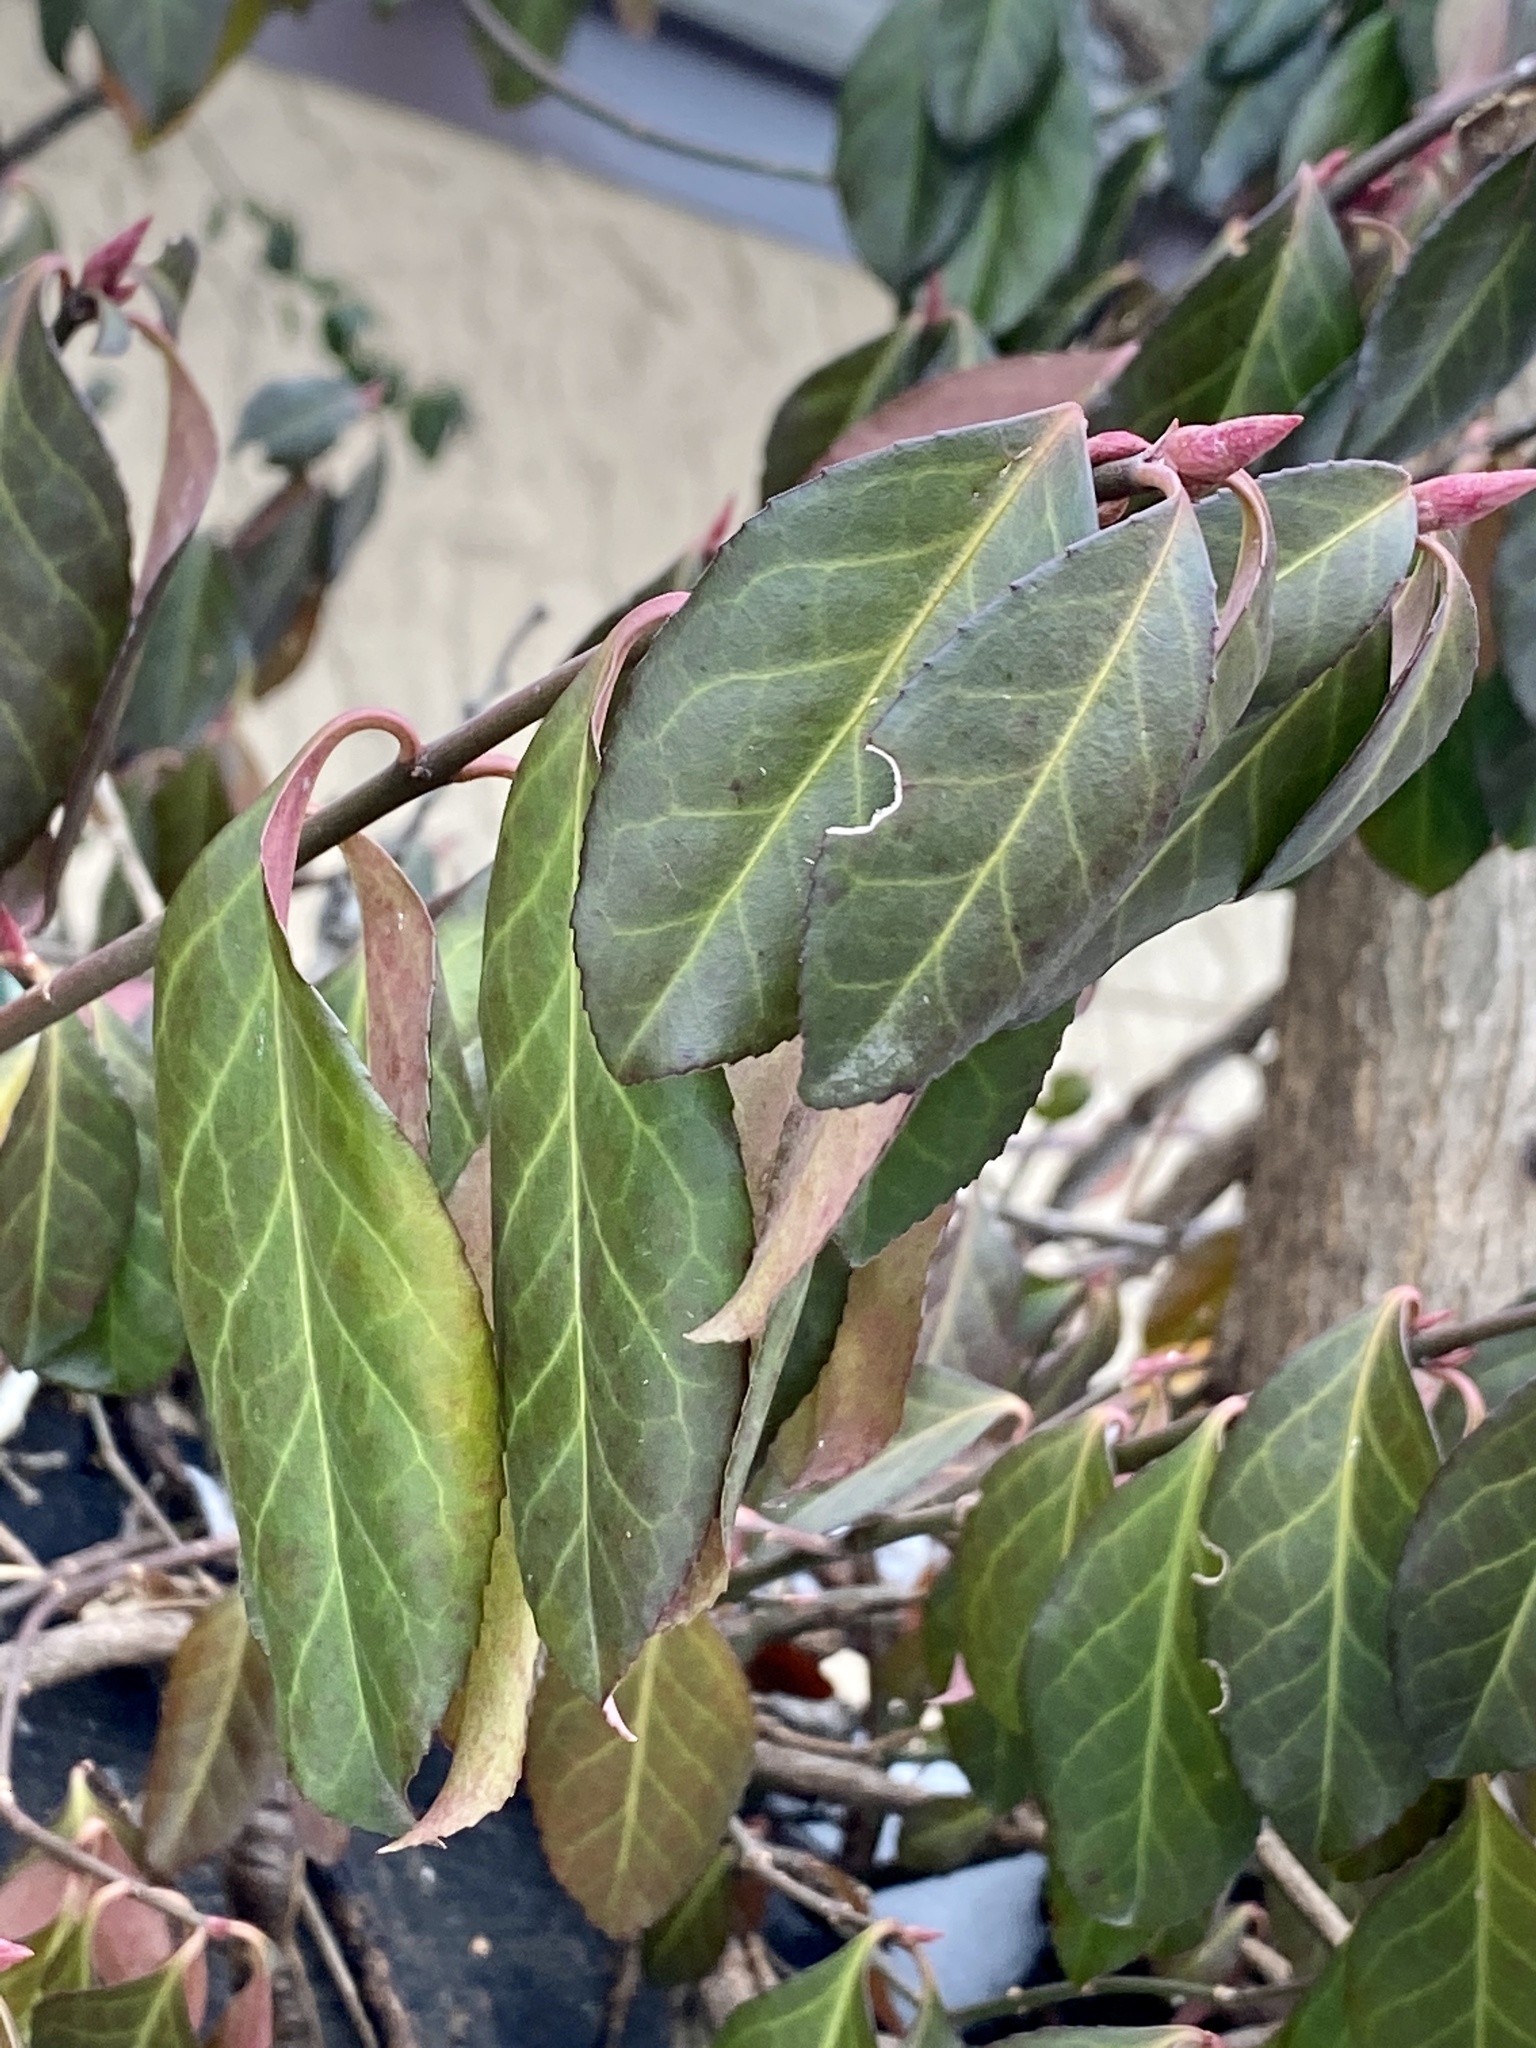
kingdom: Plantae
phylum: Tracheophyta
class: Magnoliopsida
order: Celastrales
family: Celastraceae
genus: Euonymus
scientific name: Euonymus fortunei
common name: Climbing euonymus
